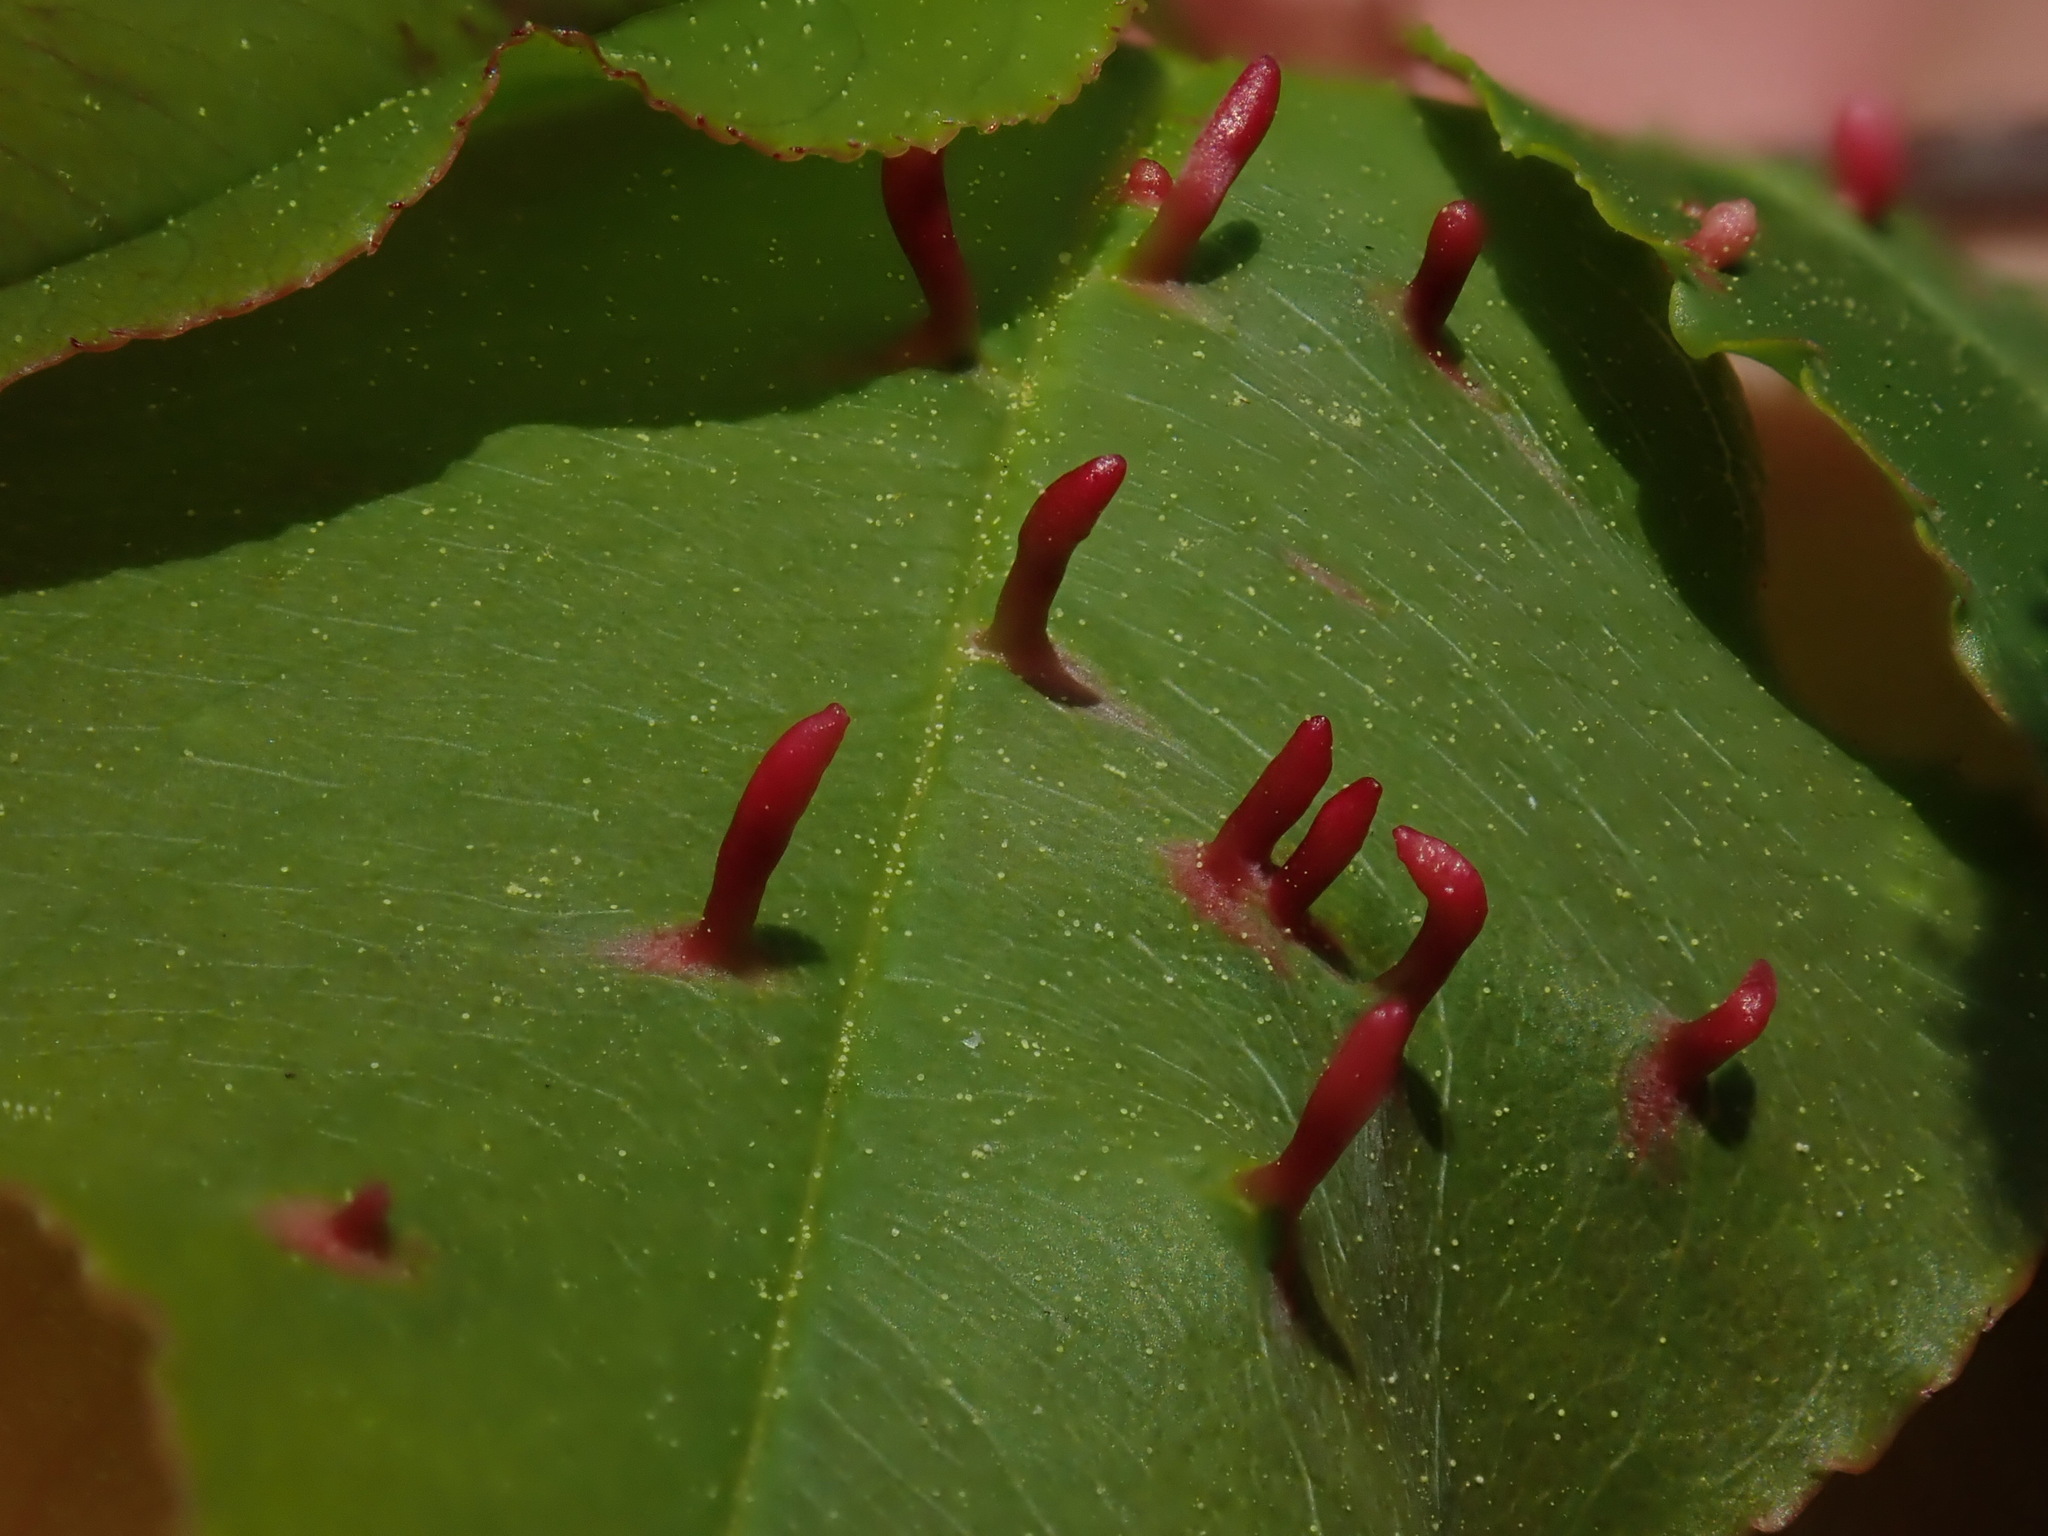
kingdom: Animalia
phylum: Arthropoda
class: Arachnida
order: Trombidiformes
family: Eriophyidae
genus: Eriophyes
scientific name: Eriophyes
